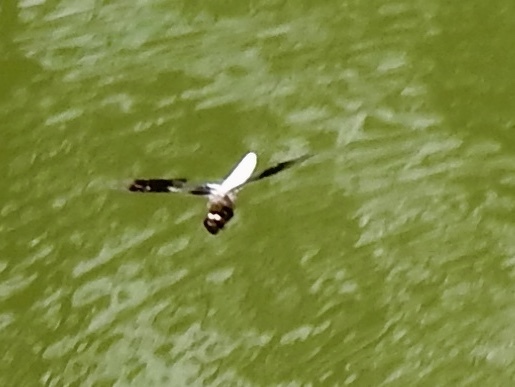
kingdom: Animalia
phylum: Arthropoda
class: Insecta
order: Odonata
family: Libellulidae
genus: Plathemis
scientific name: Plathemis lydia
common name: Common whitetail
